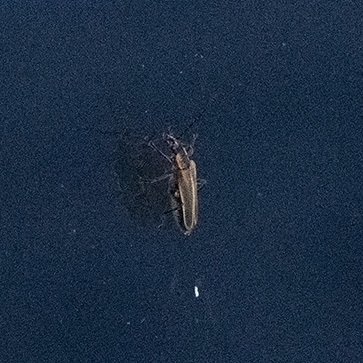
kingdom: Animalia
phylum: Arthropoda
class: Insecta
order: Coleoptera
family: Cantharidae
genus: Chauliognathus
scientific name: Chauliognathus marginatus
